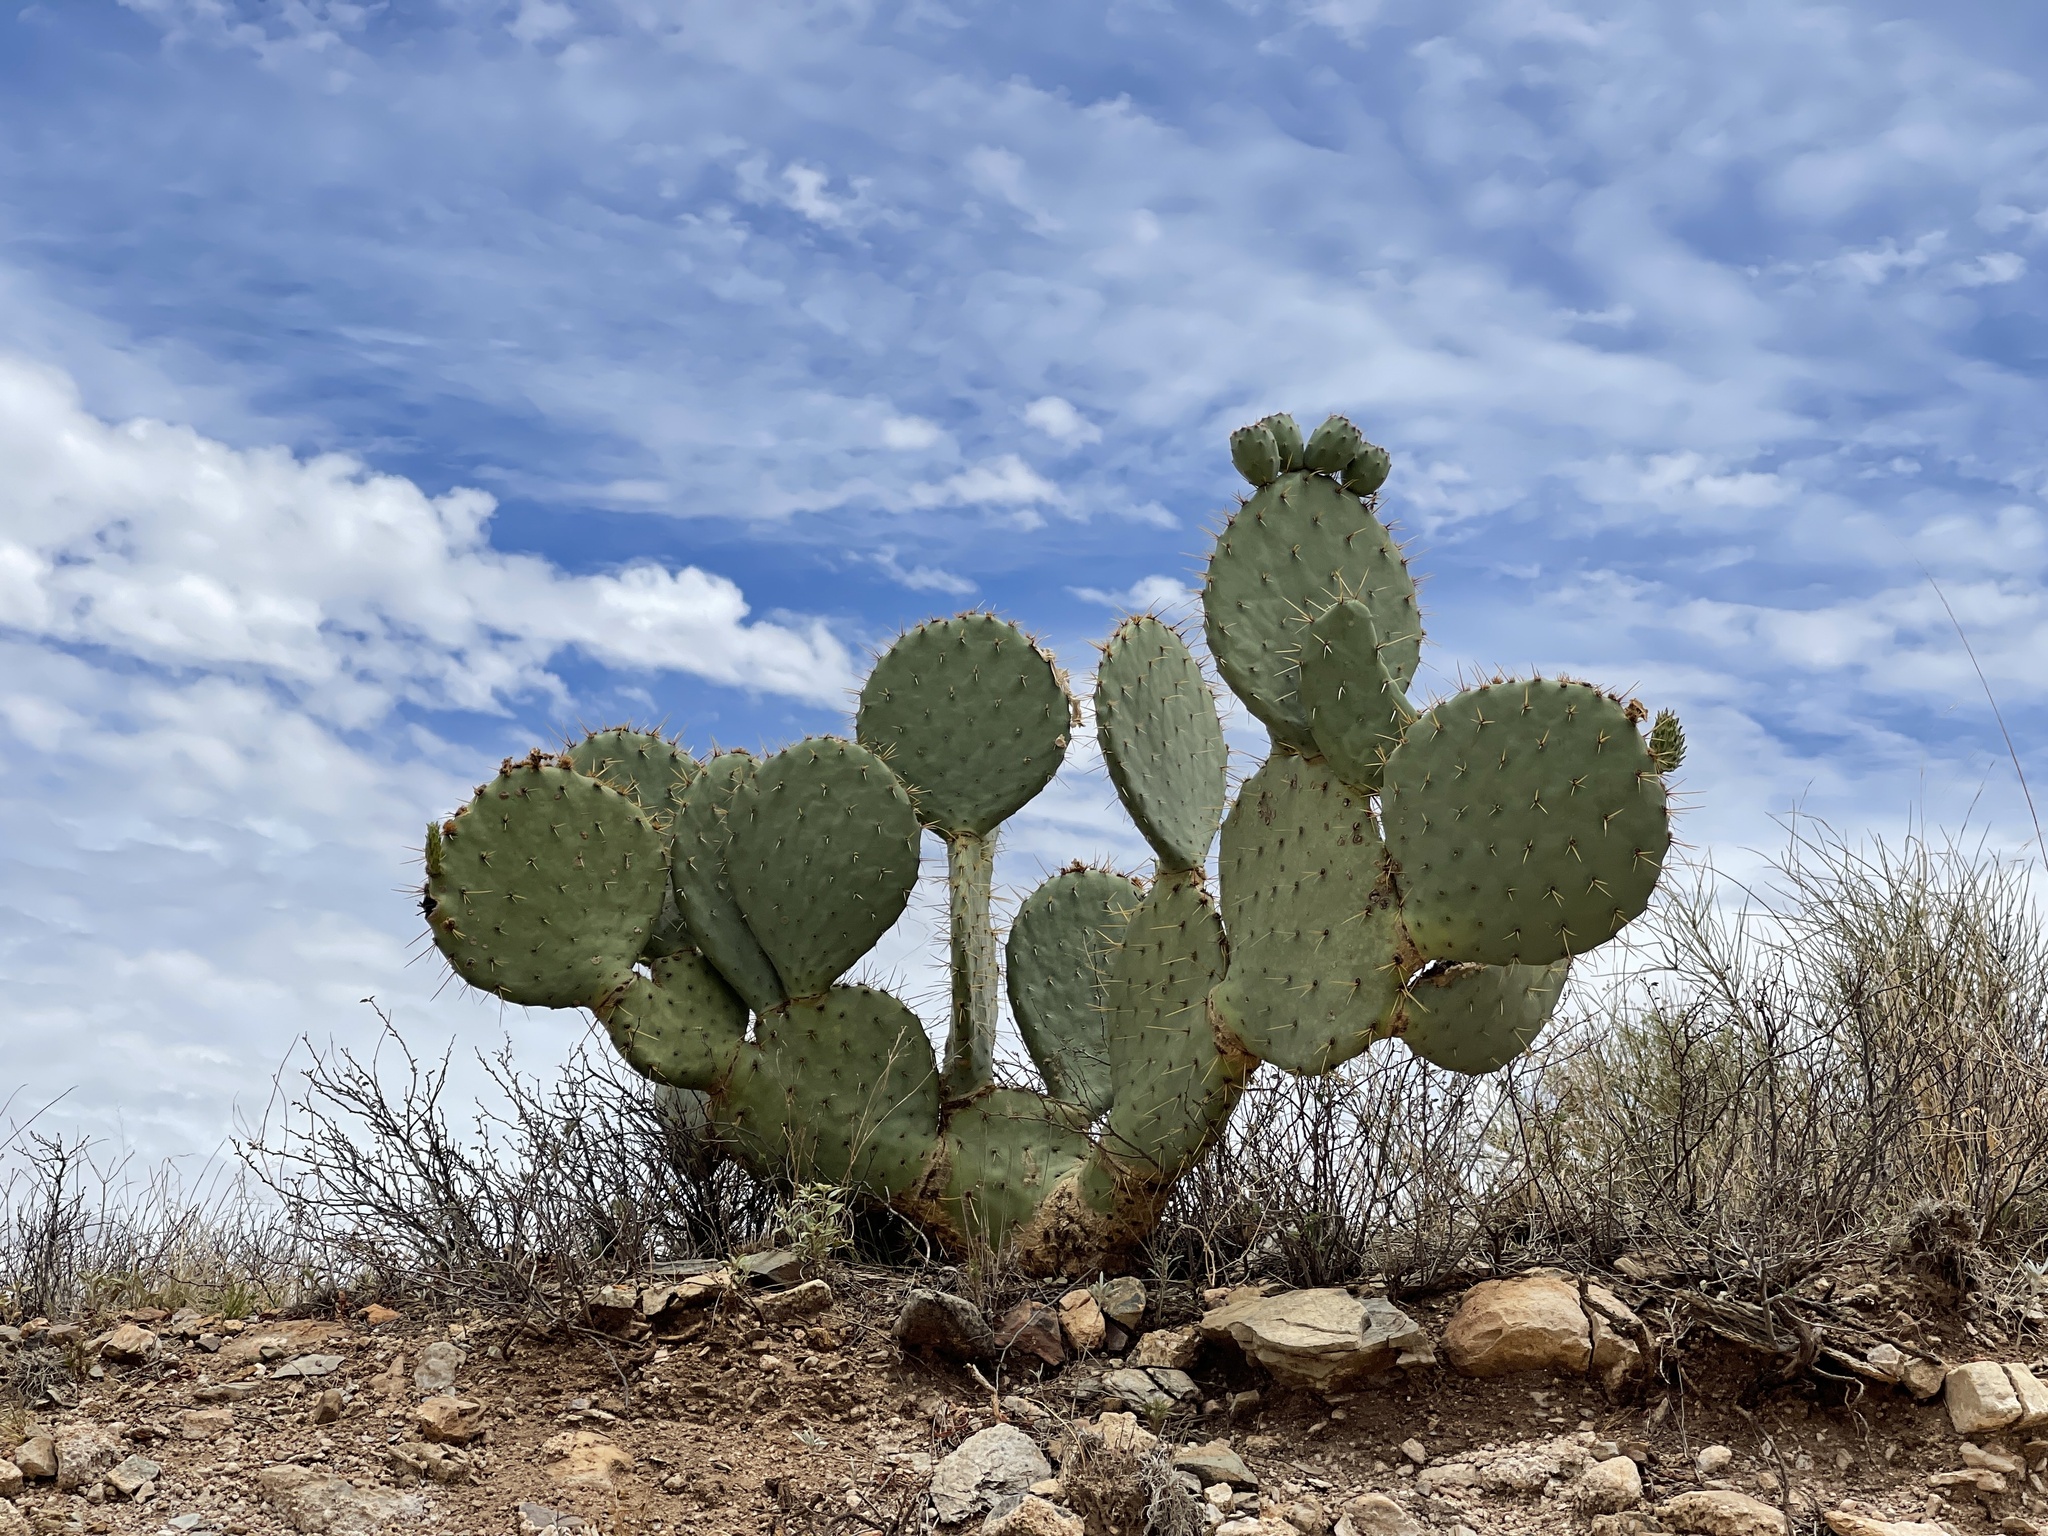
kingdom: Plantae
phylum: Tracheophyta
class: Magnoliopsida
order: Caryophyllales
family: Cactaceae
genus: Opuntia
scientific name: Opuntia orbiculata
